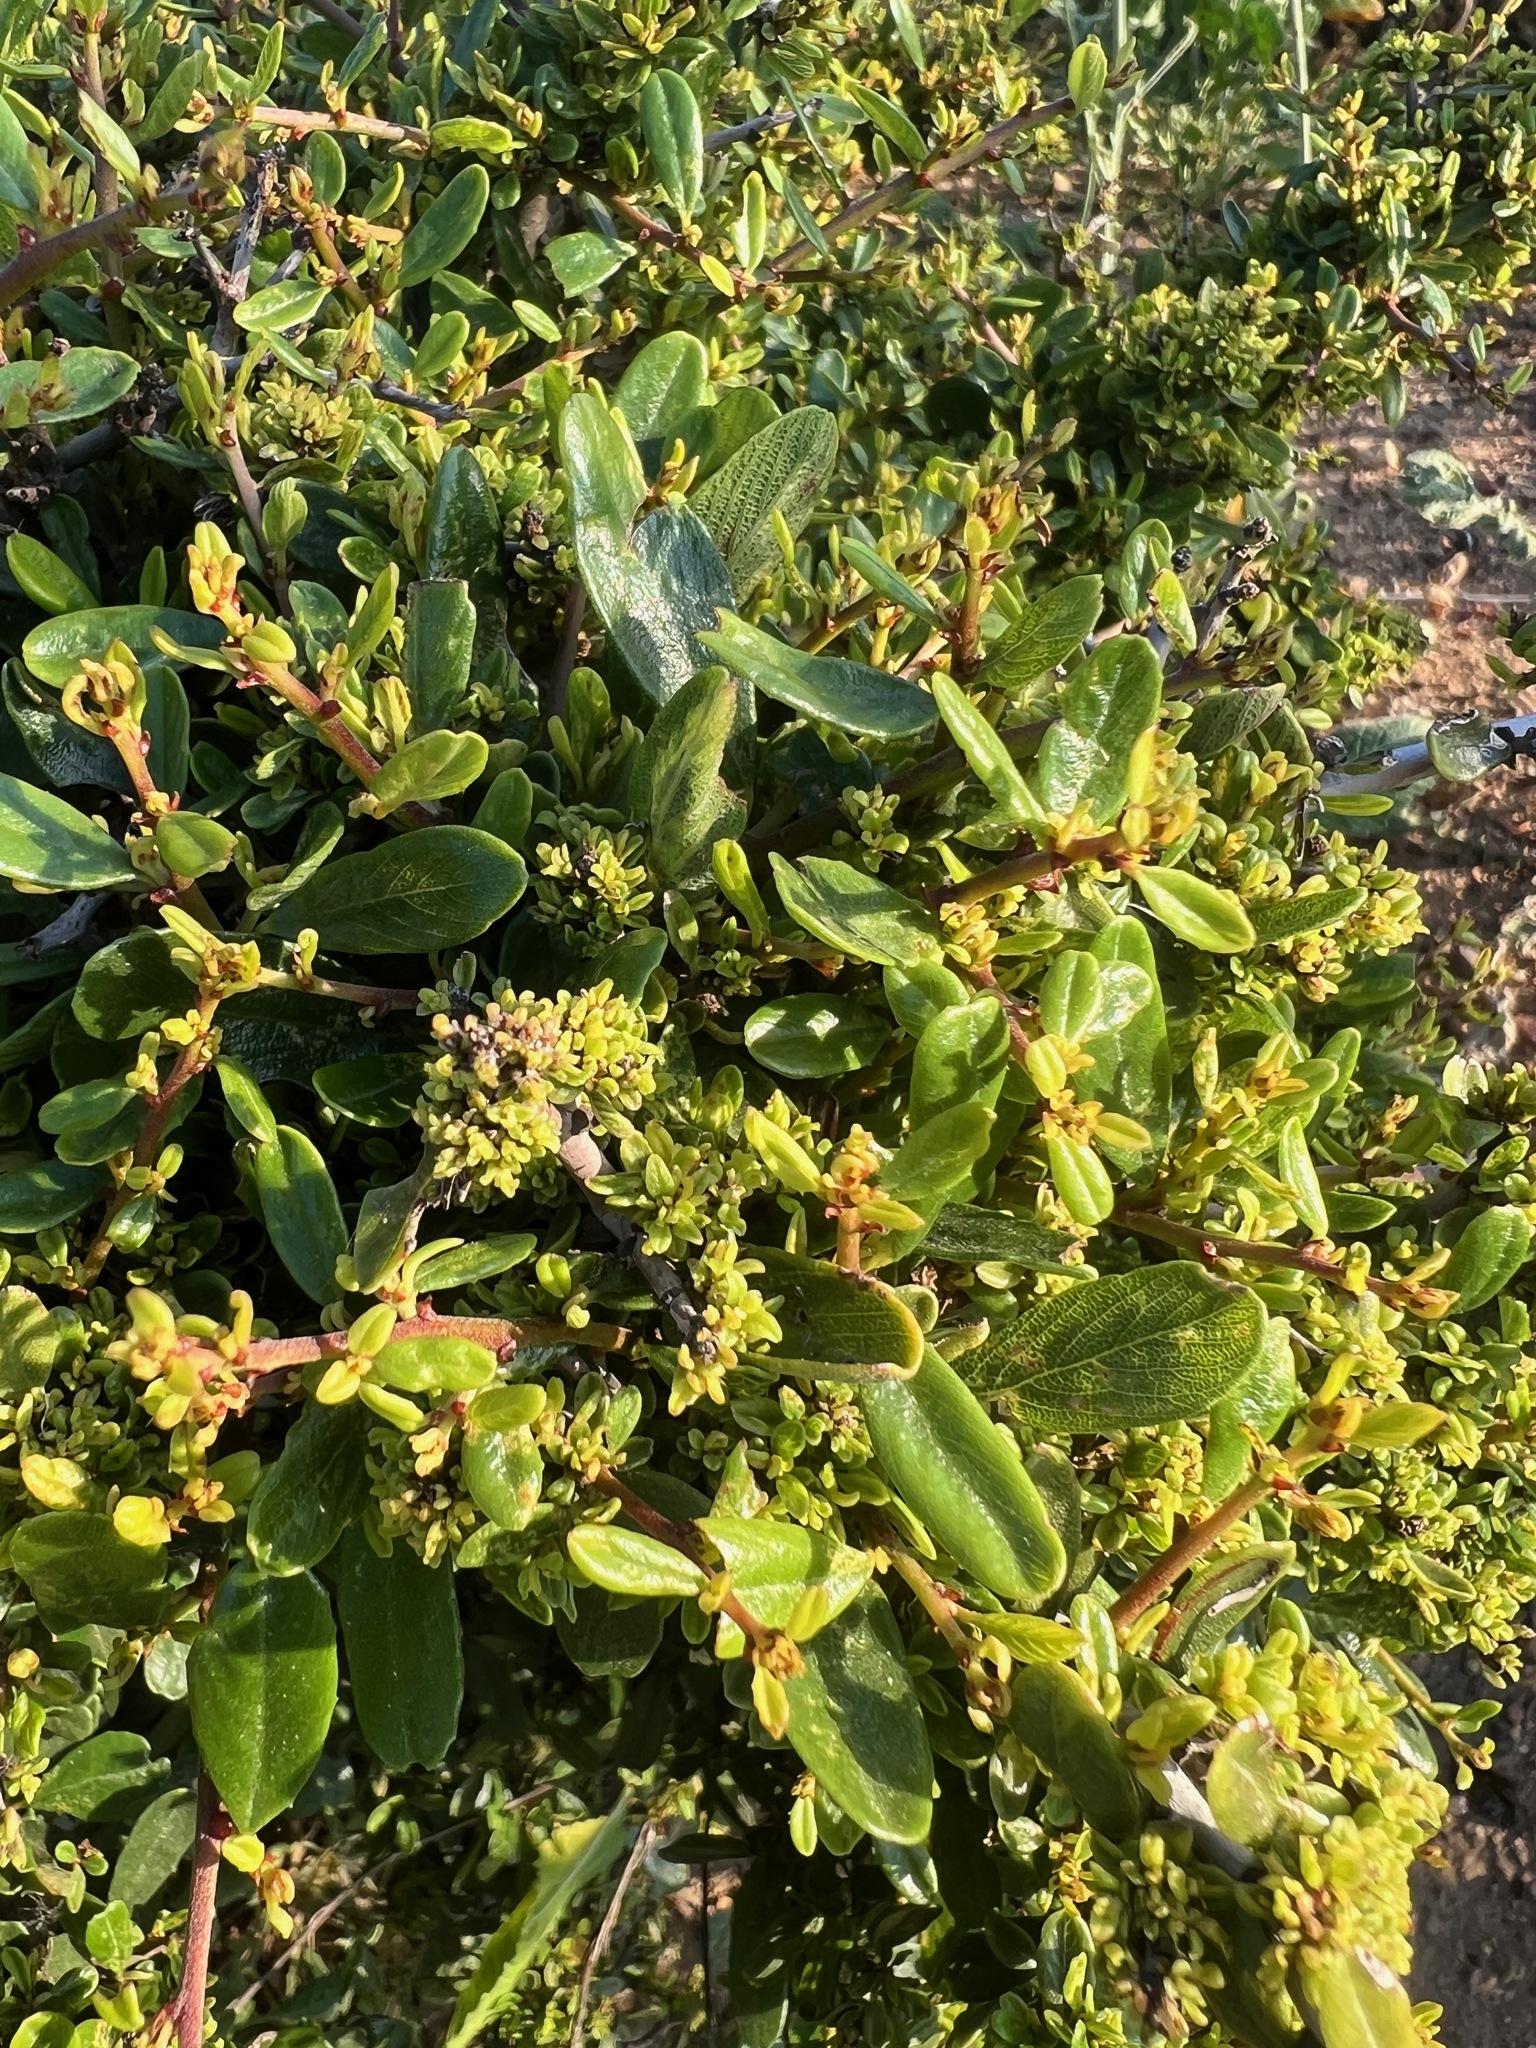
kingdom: Plantae
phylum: Tracheophyta
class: Magnoliopsida
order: Rosales
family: Rhamnaceae
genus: Ceanothus
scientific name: Ceanothus megacarpus
